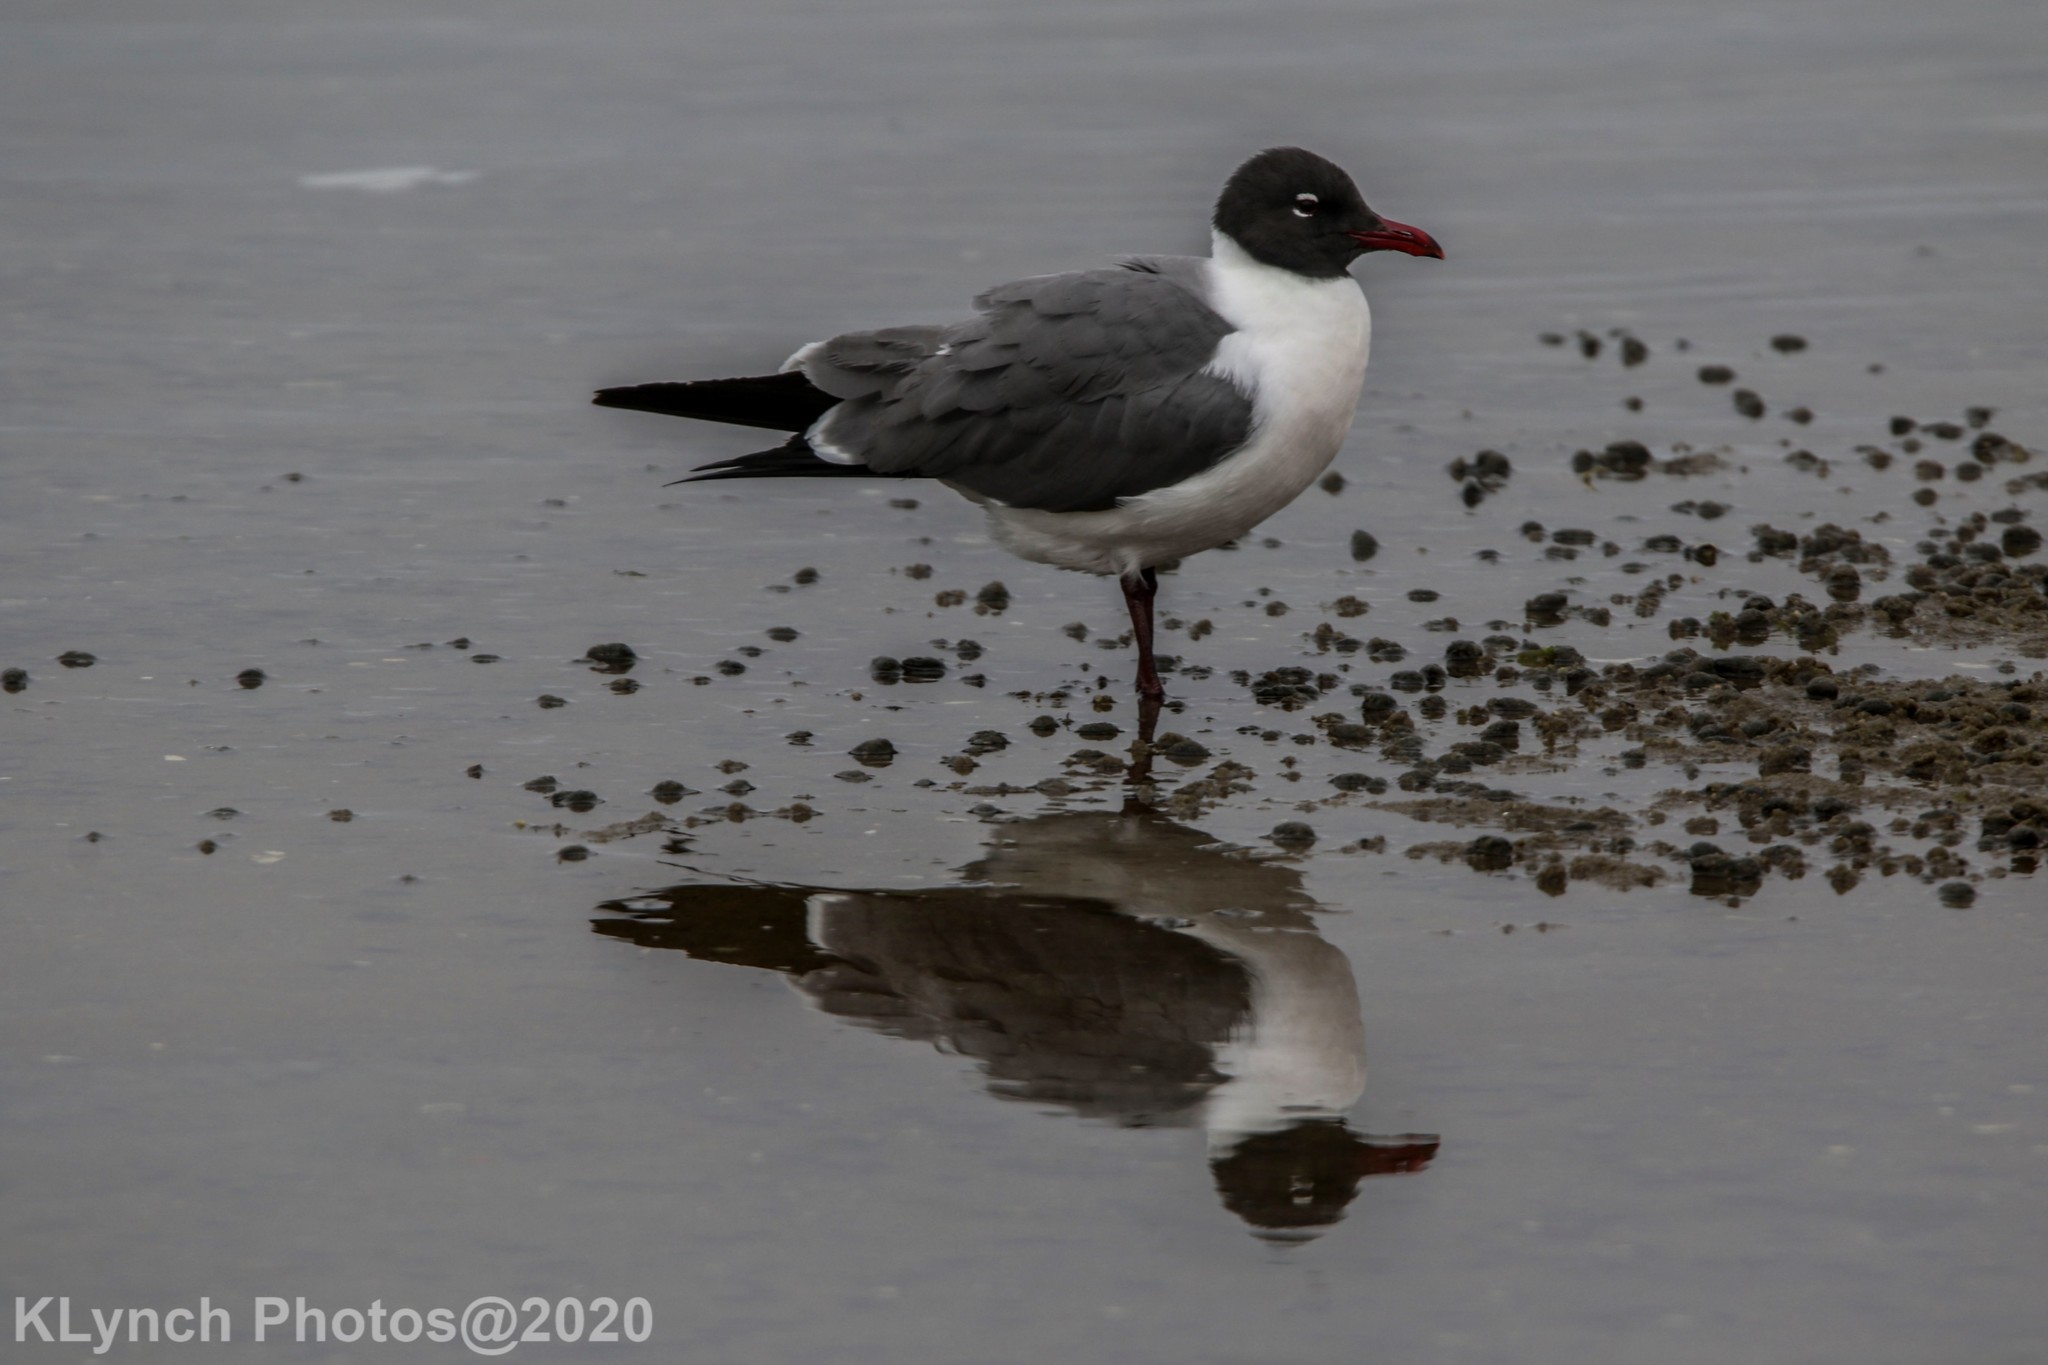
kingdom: Animalia
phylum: Chordata
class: Aves
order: Charadriiformes
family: Laridae
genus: Leucophaeus
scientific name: Leucophaeus atricilla
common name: Laughing gull
